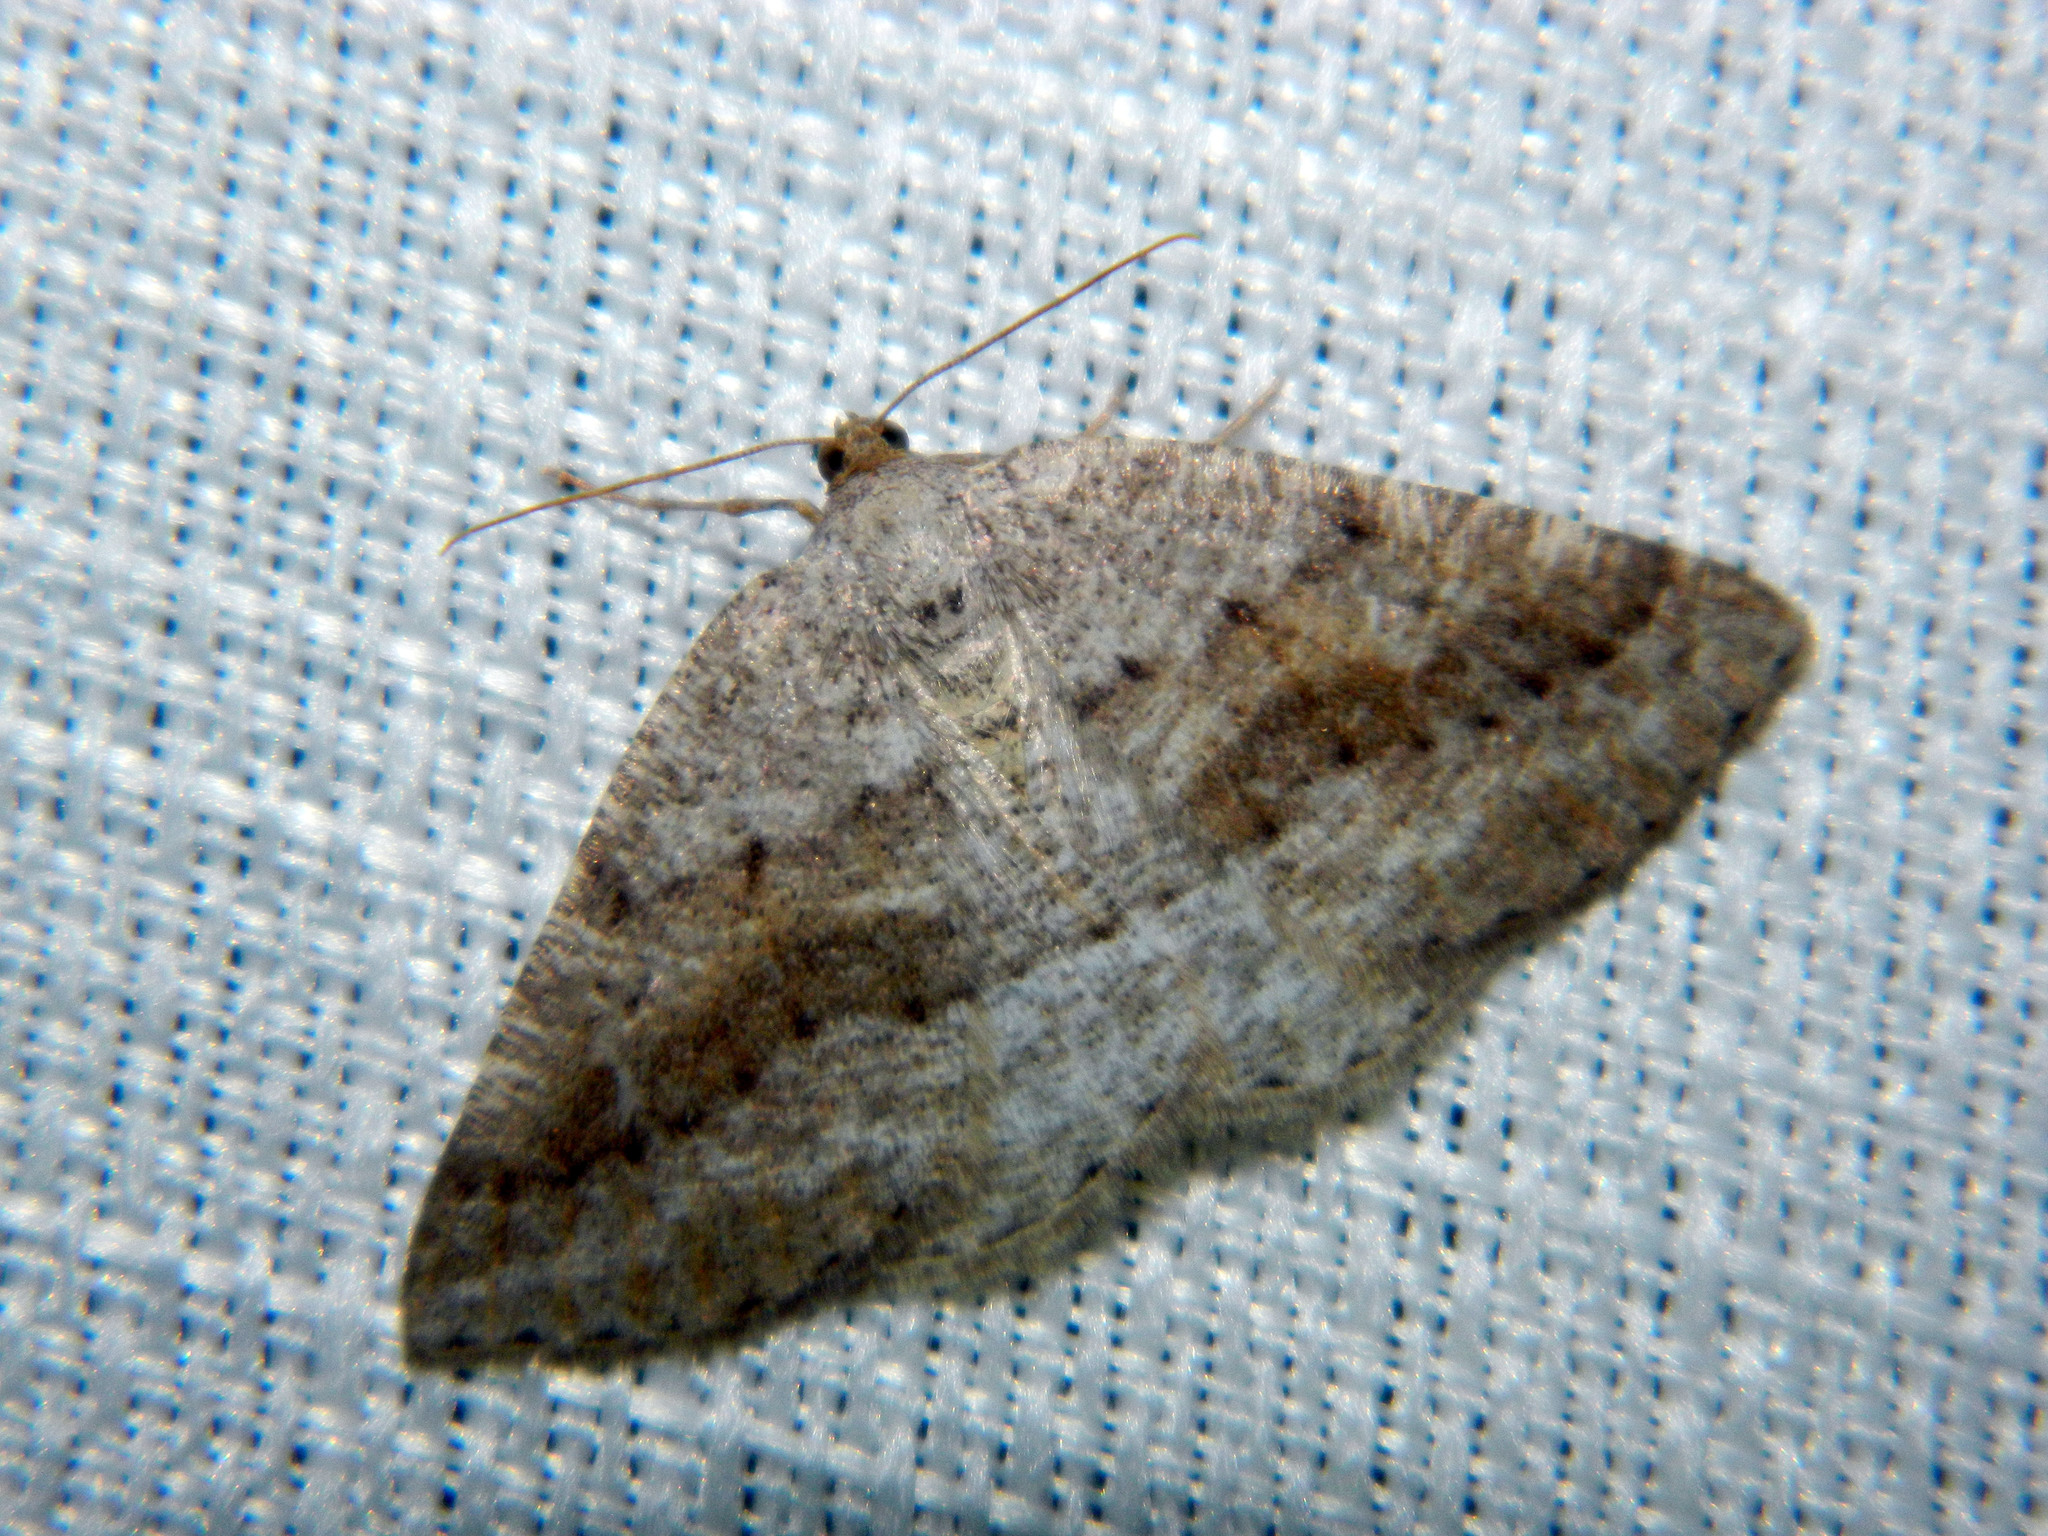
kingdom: Animalia
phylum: Arthropoda
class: Insecta
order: Lepidoptera
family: Geometridae
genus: Tacparia
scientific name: Tacparia detersata
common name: Pale alder moth
